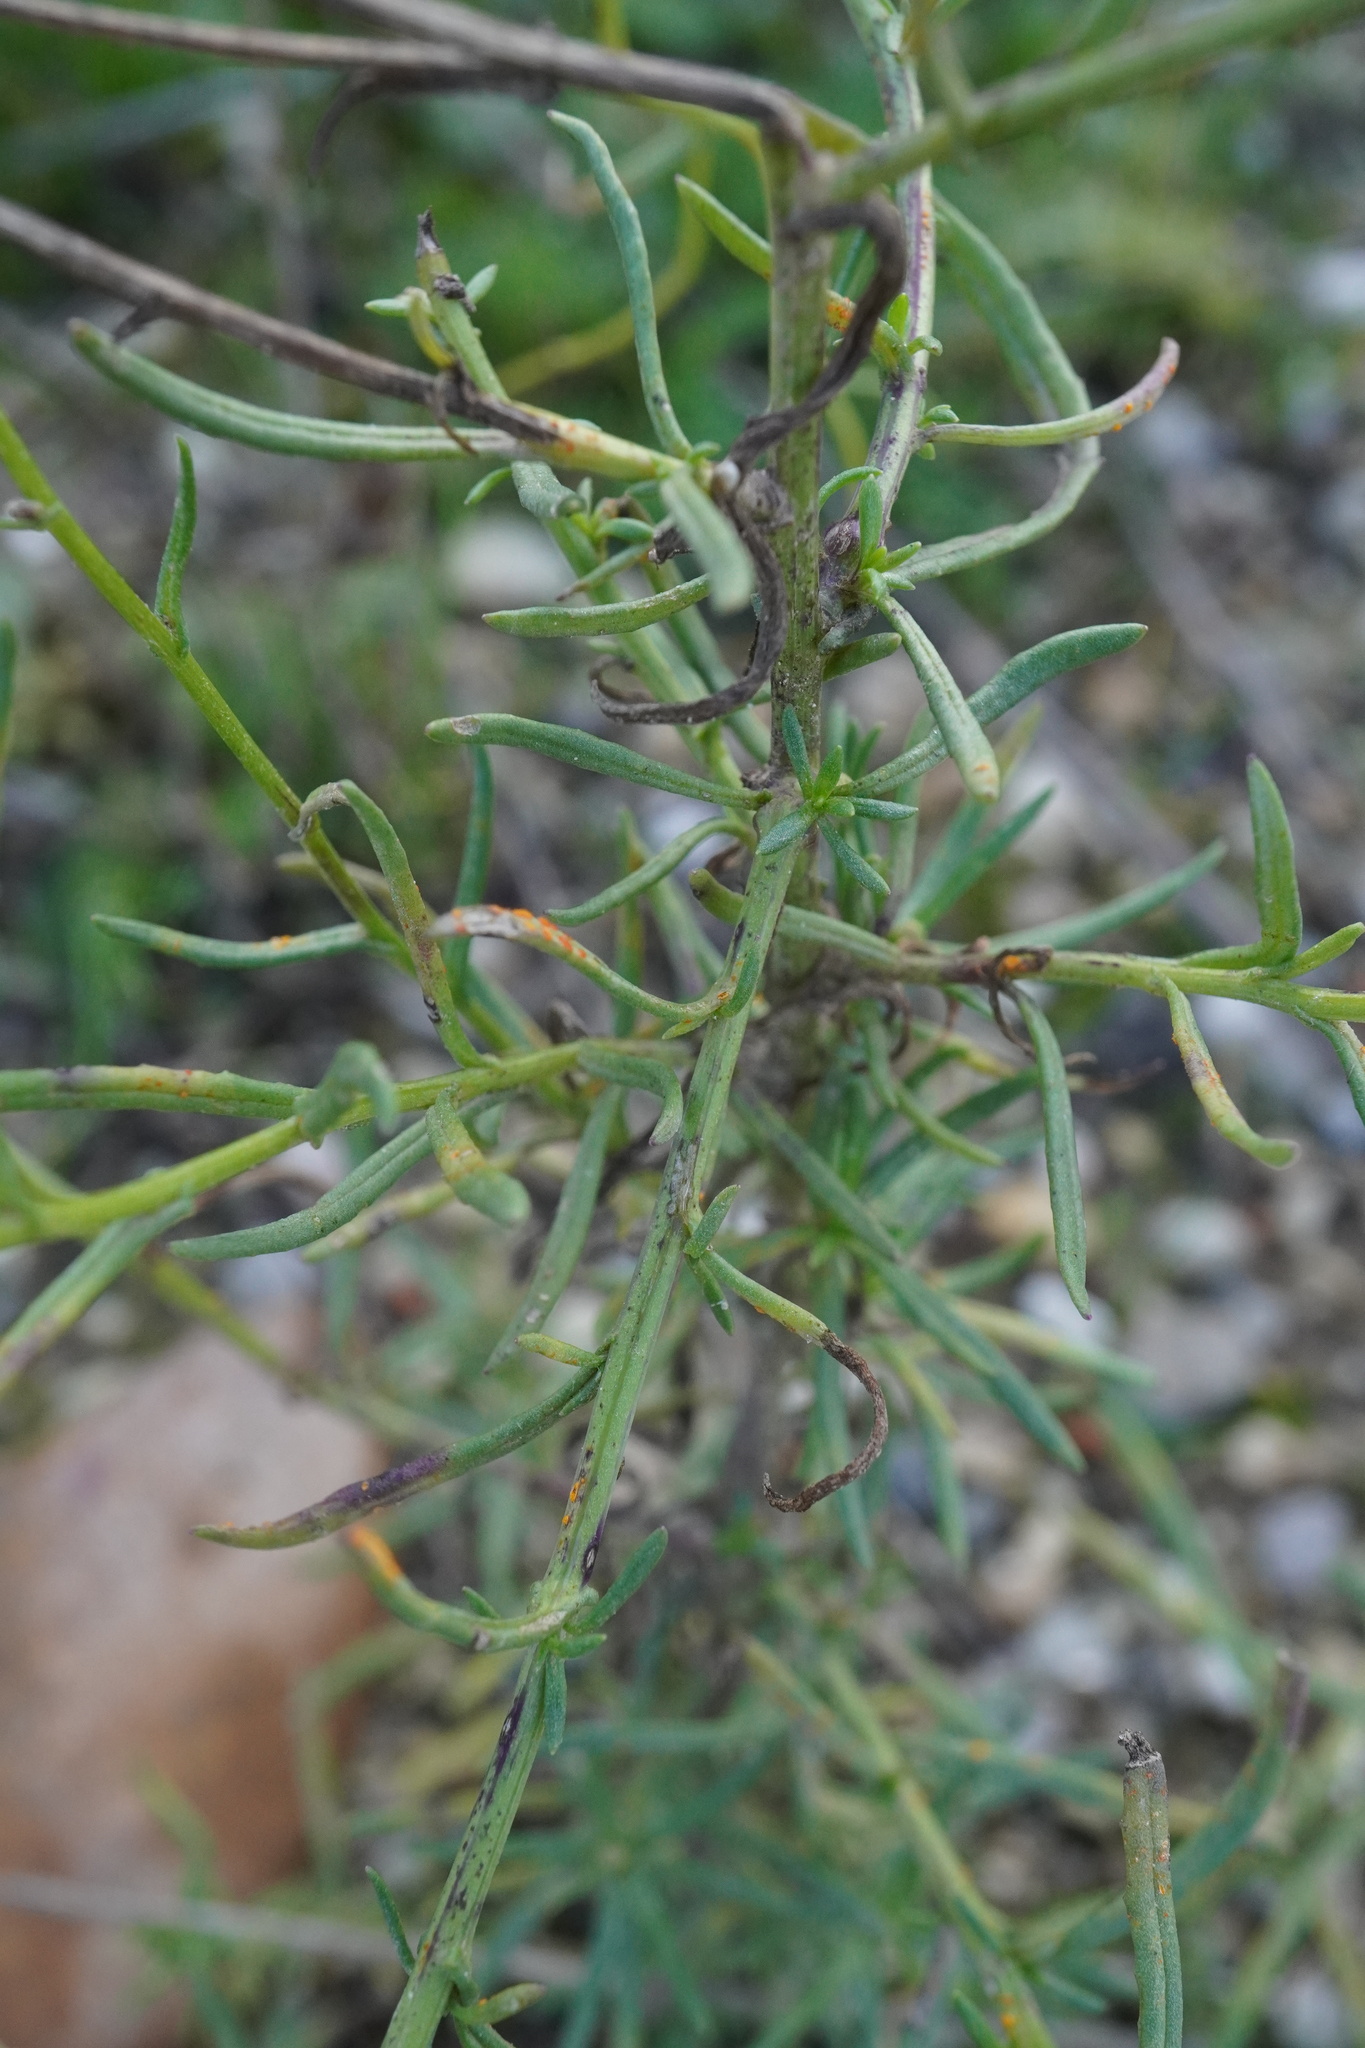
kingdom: Plantae
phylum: Tracheophyta
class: Magnoliopsida
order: Asterales
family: Asteraceae
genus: Senecio
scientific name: Senecio inaequidens
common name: Narrow-leaved ragwort
